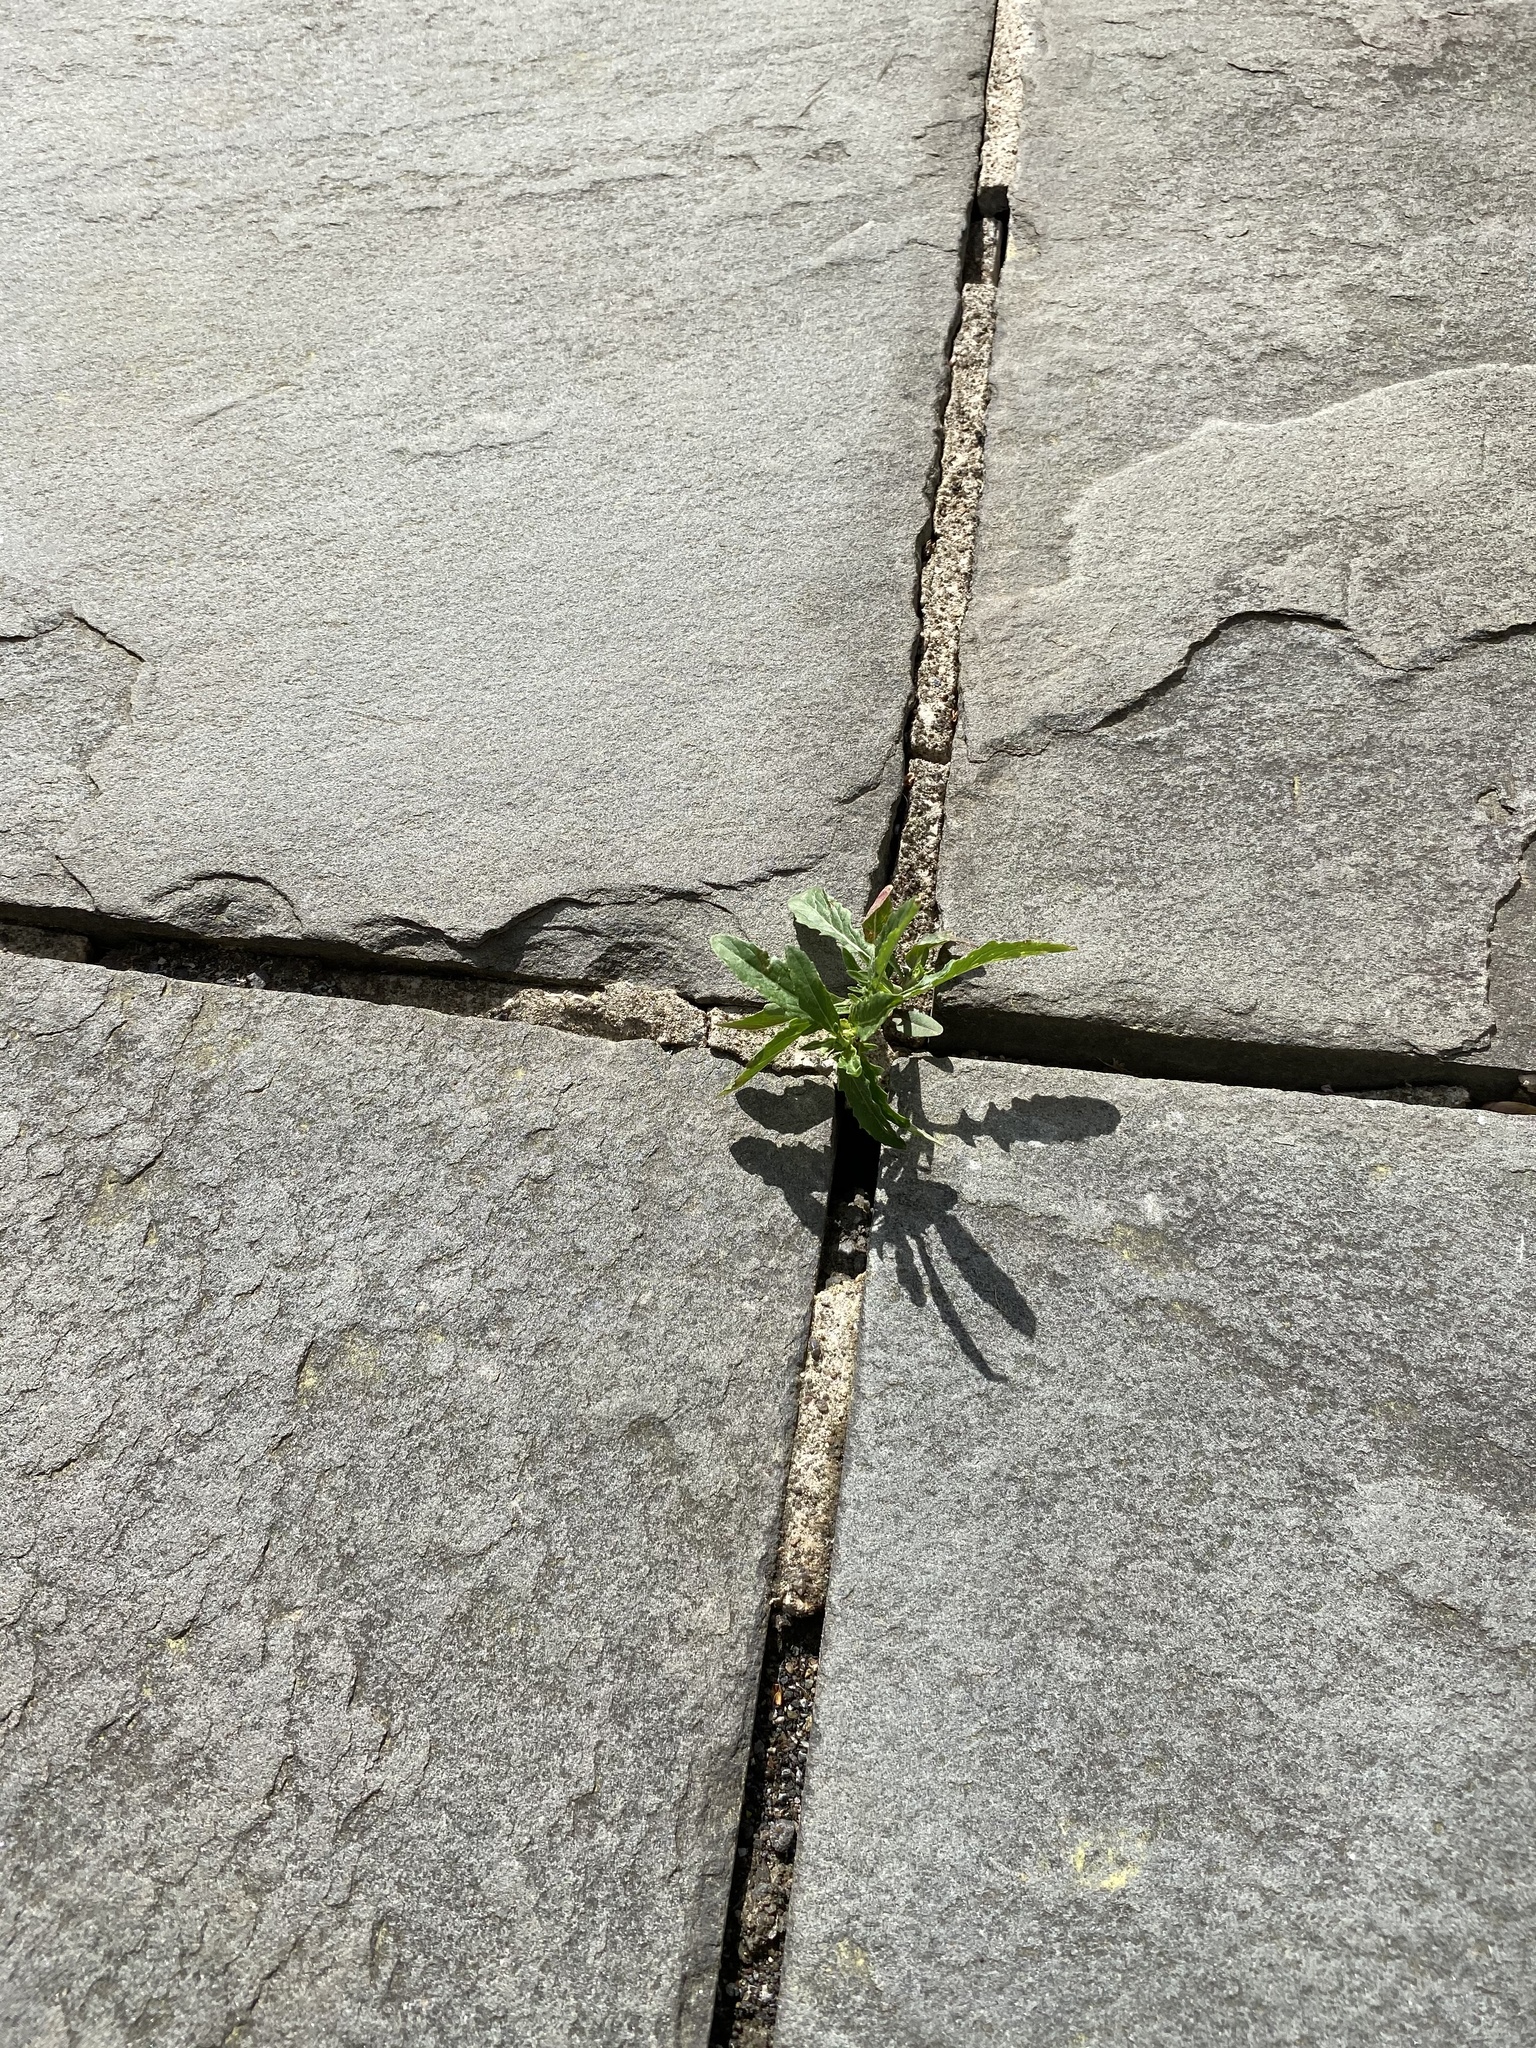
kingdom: Plantae
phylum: Tracheophyta
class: Magnoliopsida
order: Myrtales
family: Onagraceae
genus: Oenothera
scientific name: Oenothera speciosa
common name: White evening-primrose
